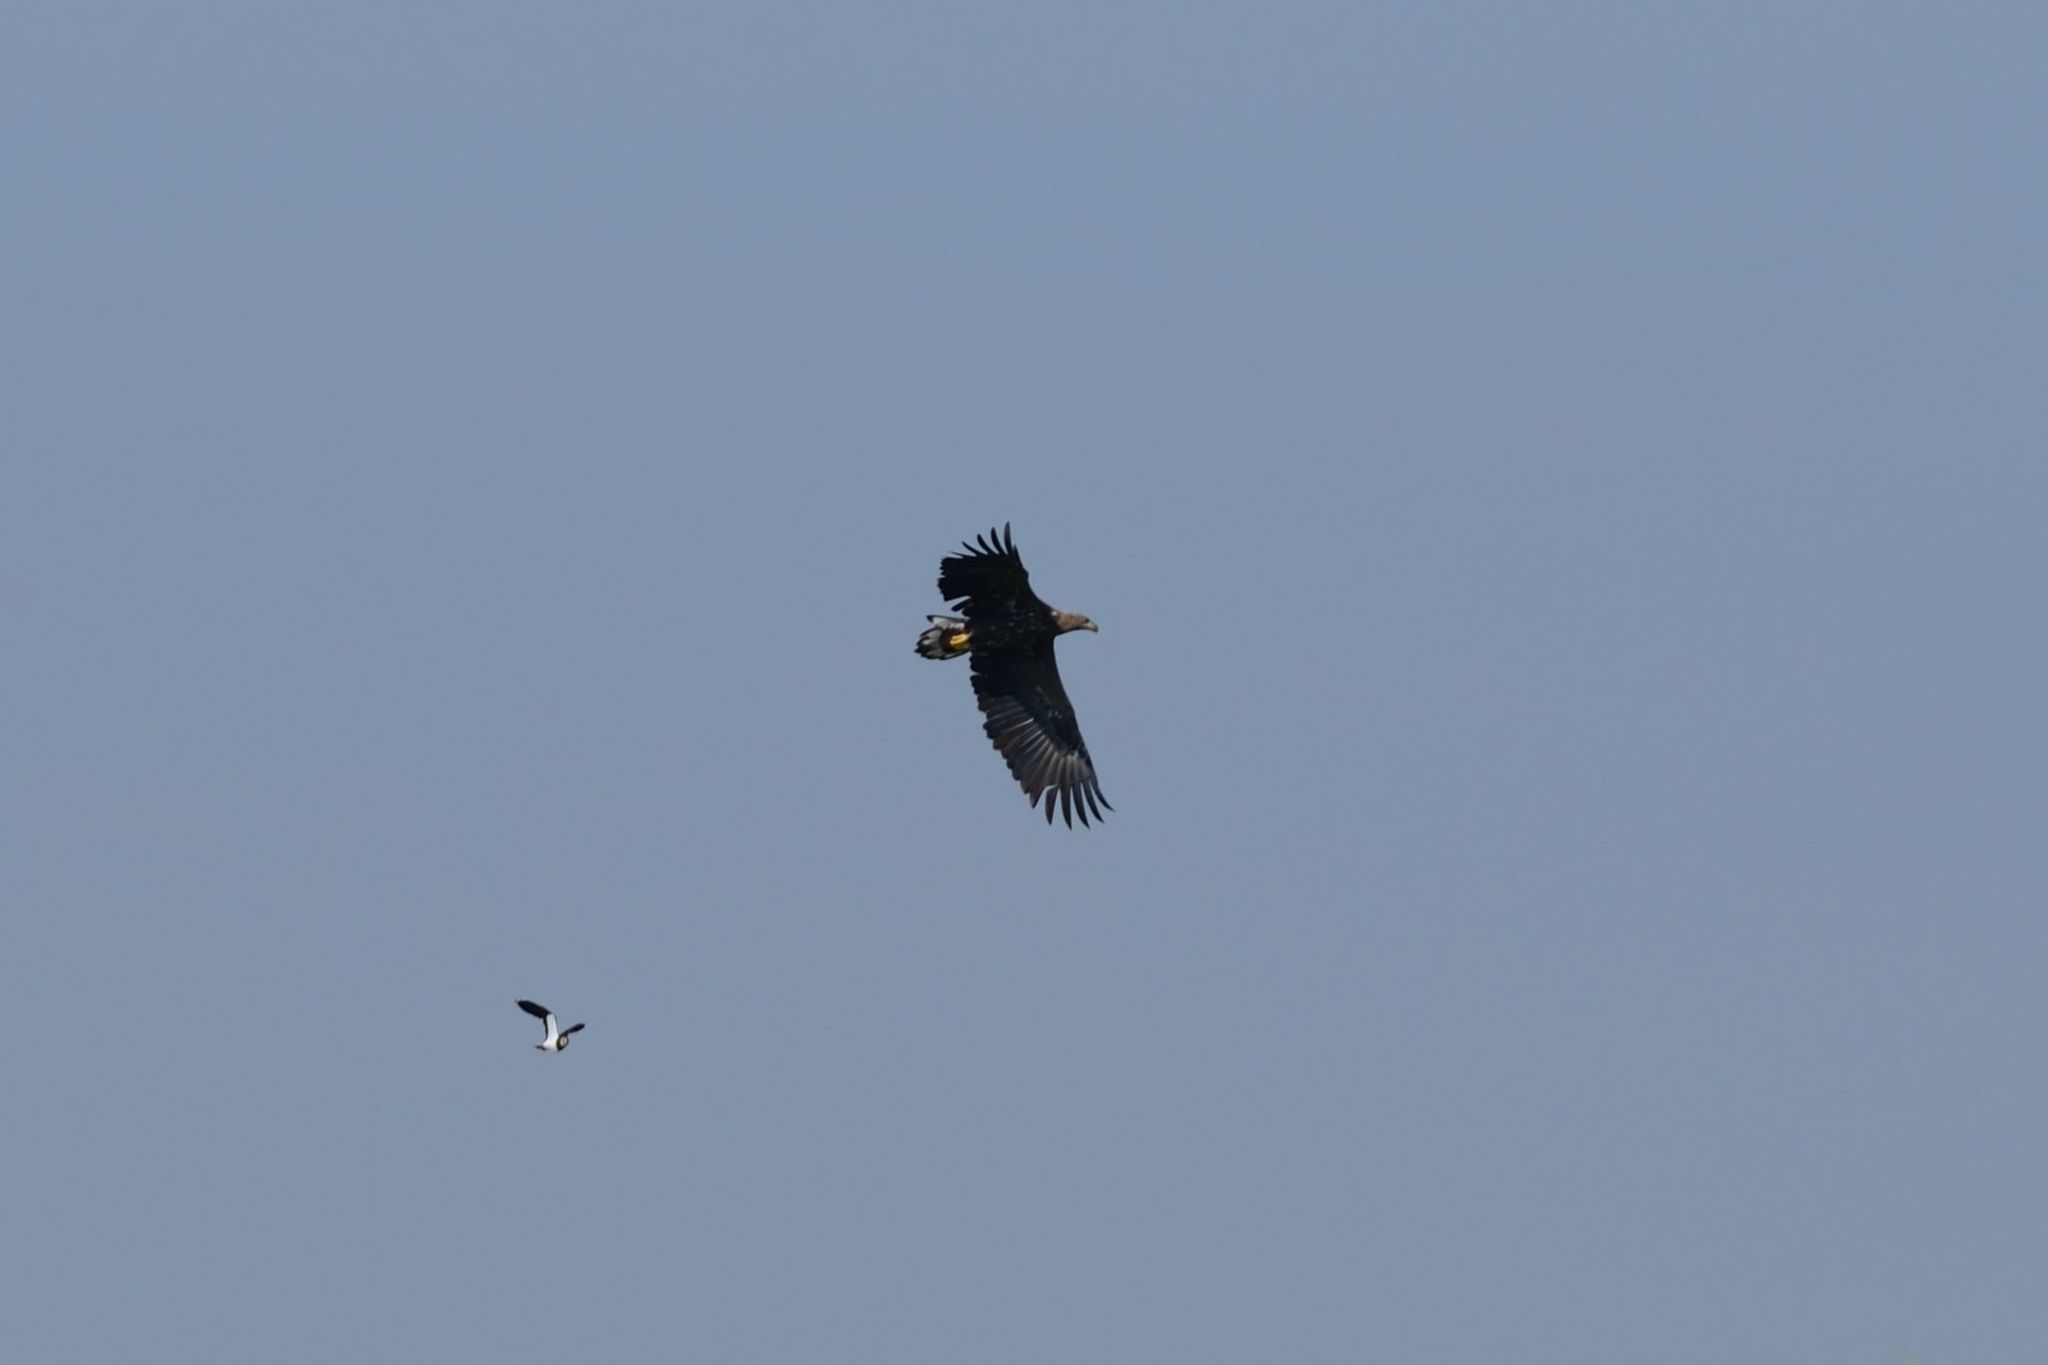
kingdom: Animalia
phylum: Chordata
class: Aves
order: Accipitriformes
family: Accipitridae
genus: Haliaeetus
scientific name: Haliaeetus albicilla
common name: White-tailed eagle
